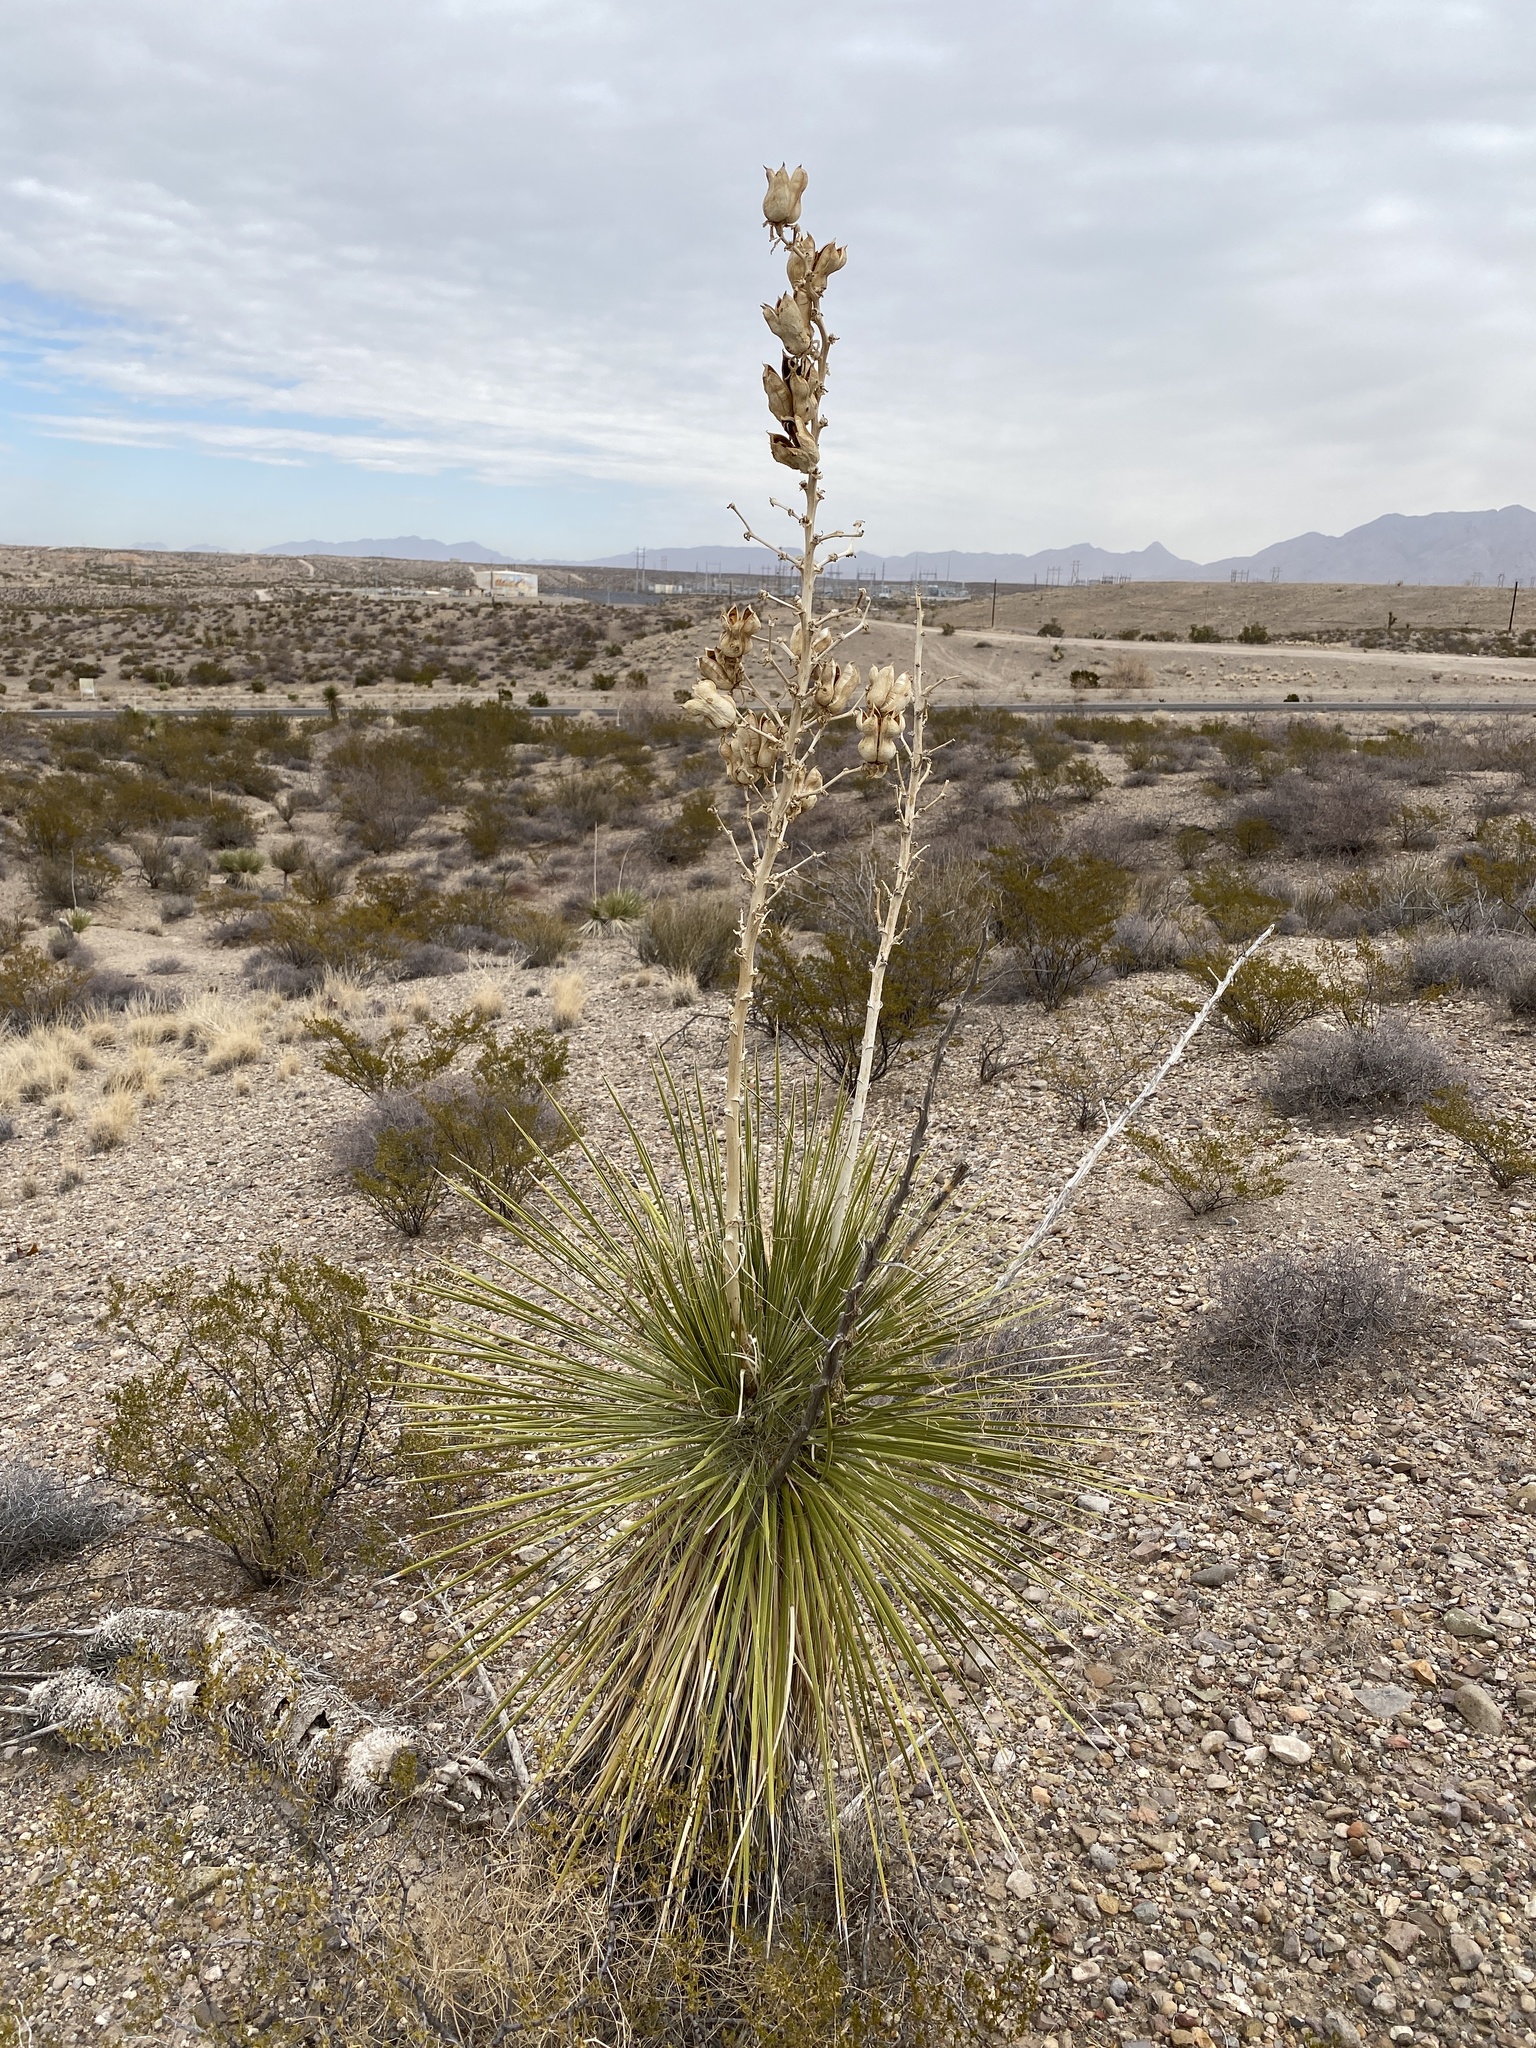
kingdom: Plantae
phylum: Tracheophyta
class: Liliopsida
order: Asparagales
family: Asparagaceae
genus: Yucca
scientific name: Yucca elata
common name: Palmella
